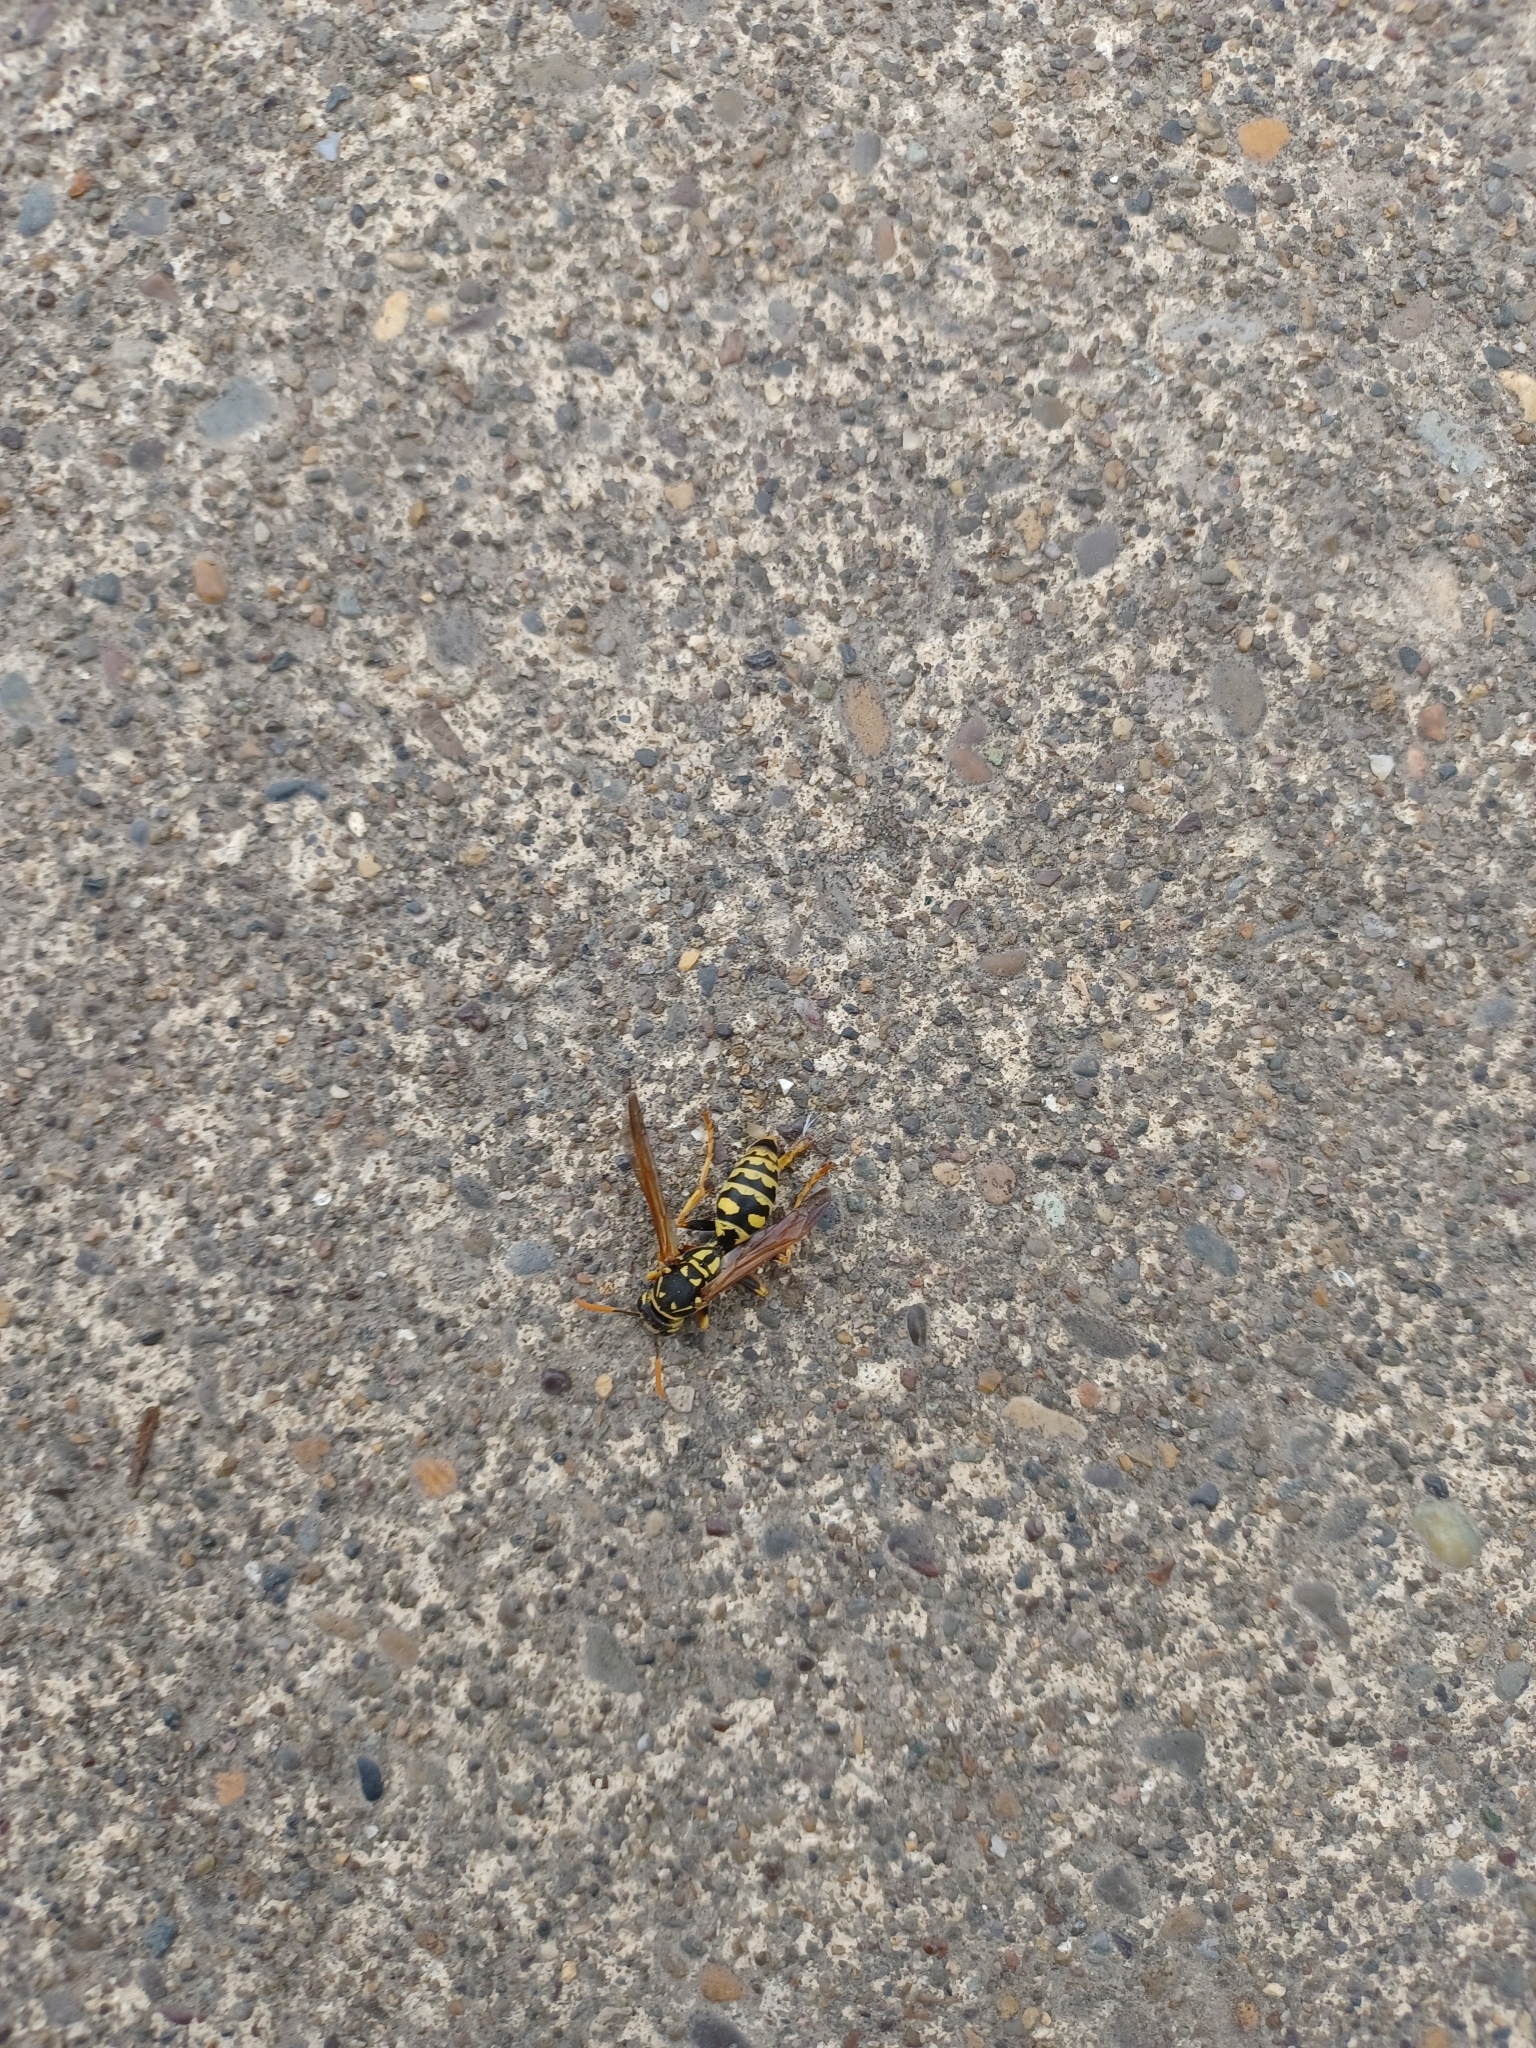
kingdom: Animalia
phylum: Arthropoda
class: Insecta
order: Hymenoptera
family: Eumenidae
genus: Polistes
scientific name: Polistes dominula
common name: Paper wasp
